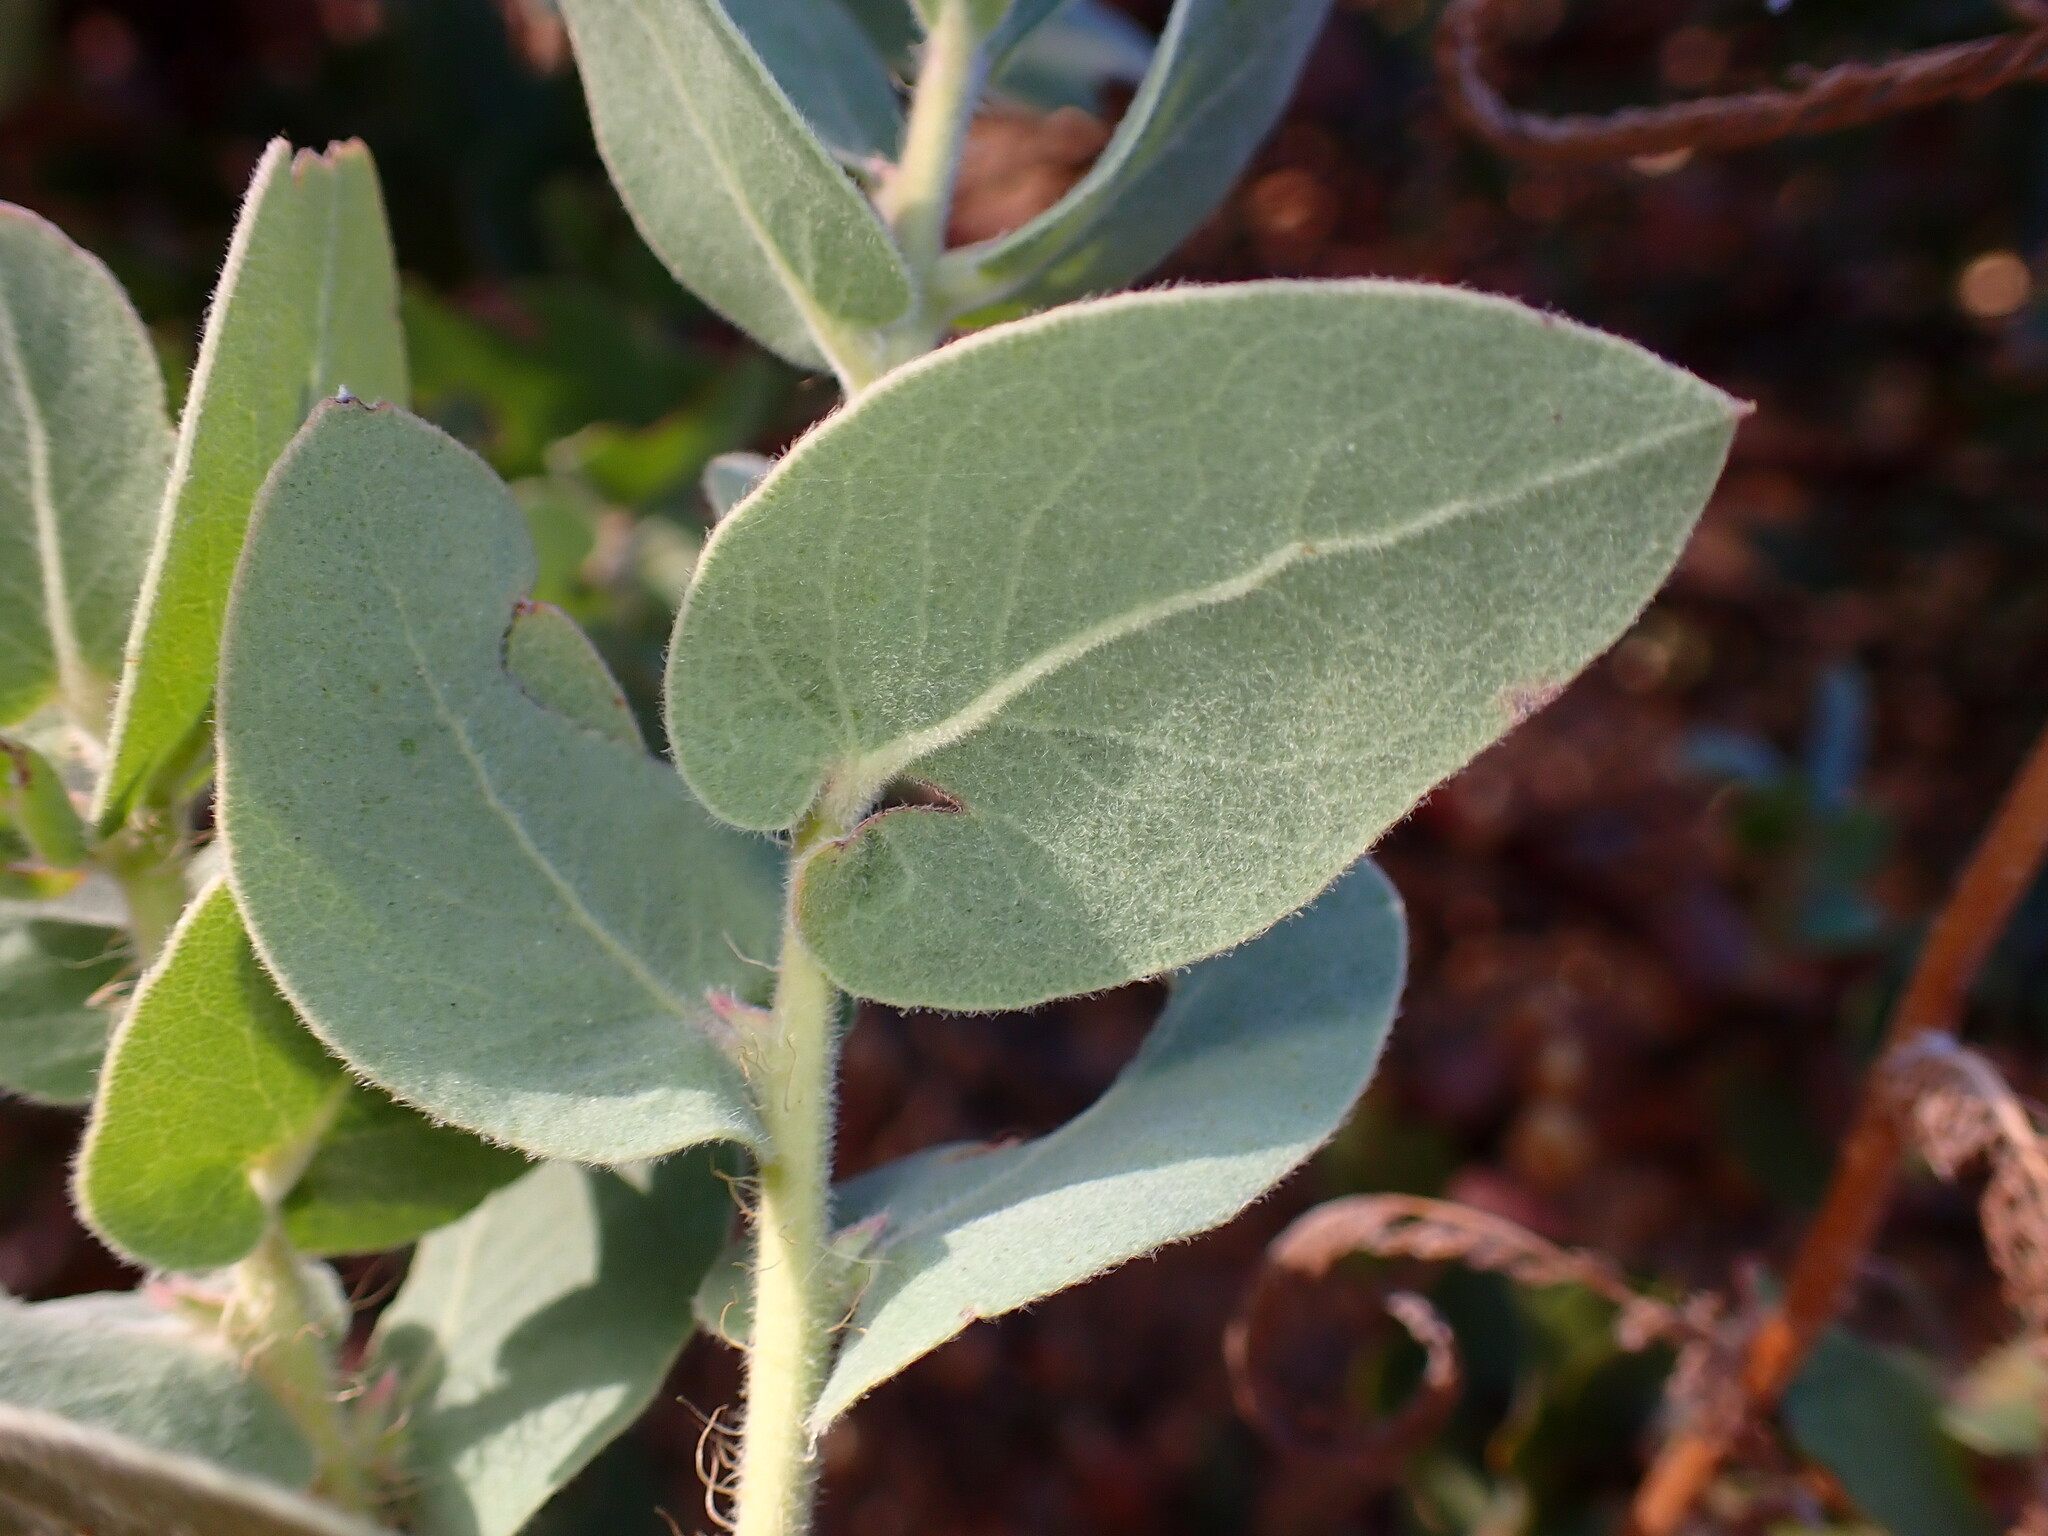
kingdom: Plantae
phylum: Tracheophyta
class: Magnoliopsida
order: Ericales
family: Ericaceae
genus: Arctostaphylos
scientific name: Arctostaphylos auriculata
